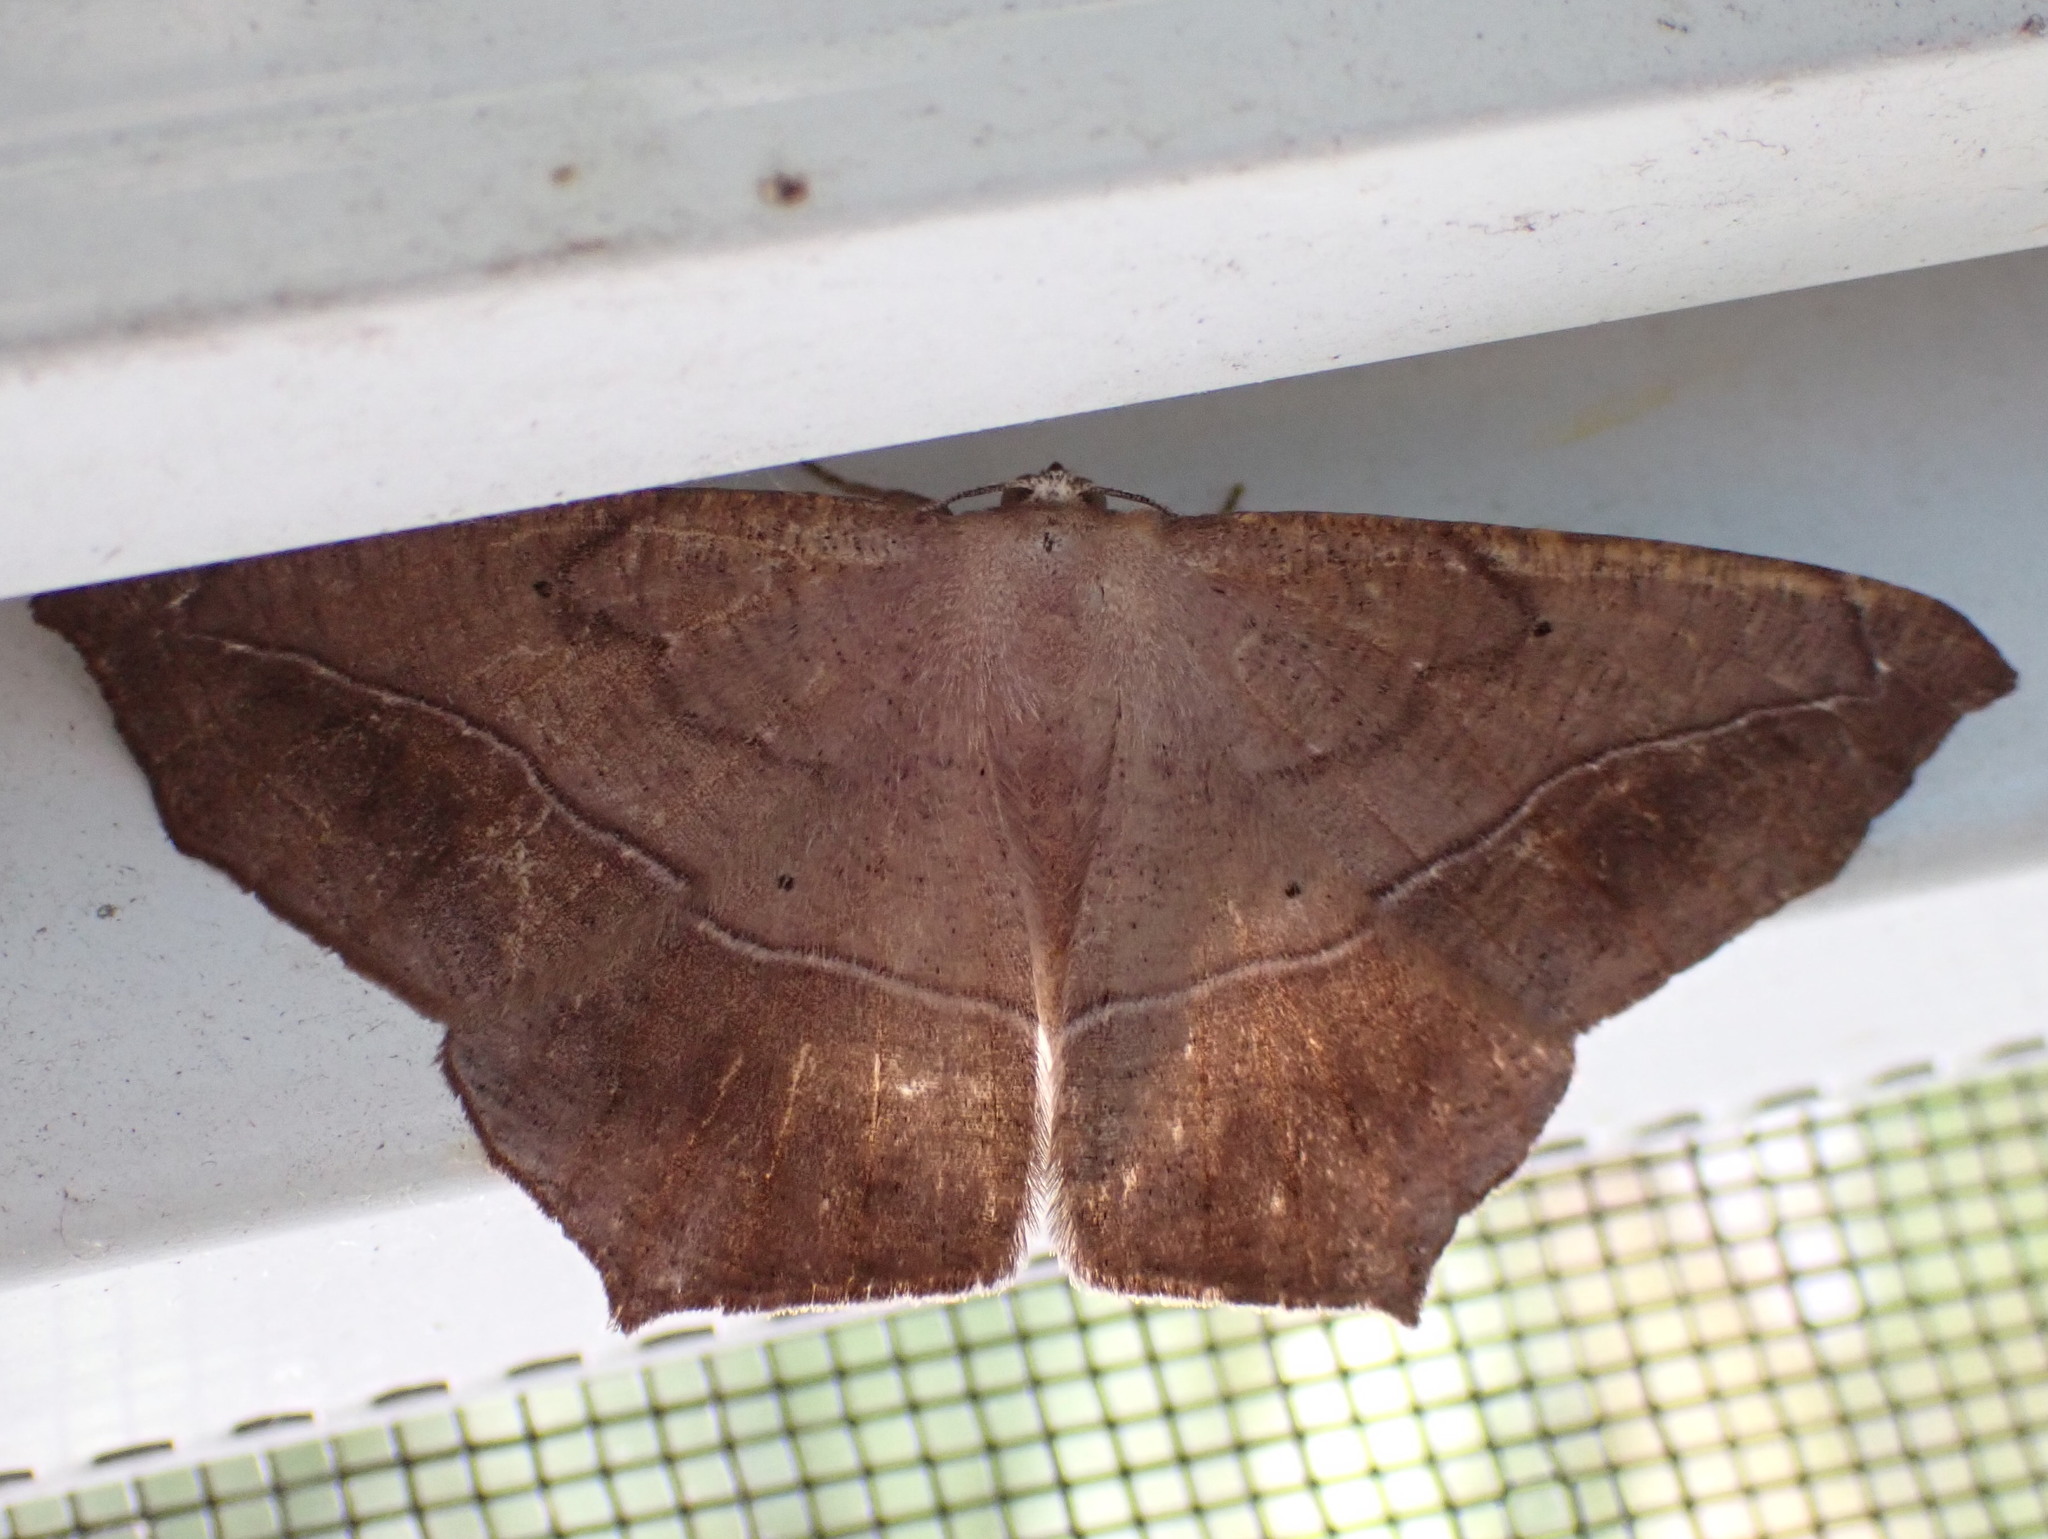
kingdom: Animalia
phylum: Arthropoda
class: Insecta
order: Lepidoptera
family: Geometridae
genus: Prochoerodes
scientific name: Prochoerodes lineola
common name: Large maple spanworm
